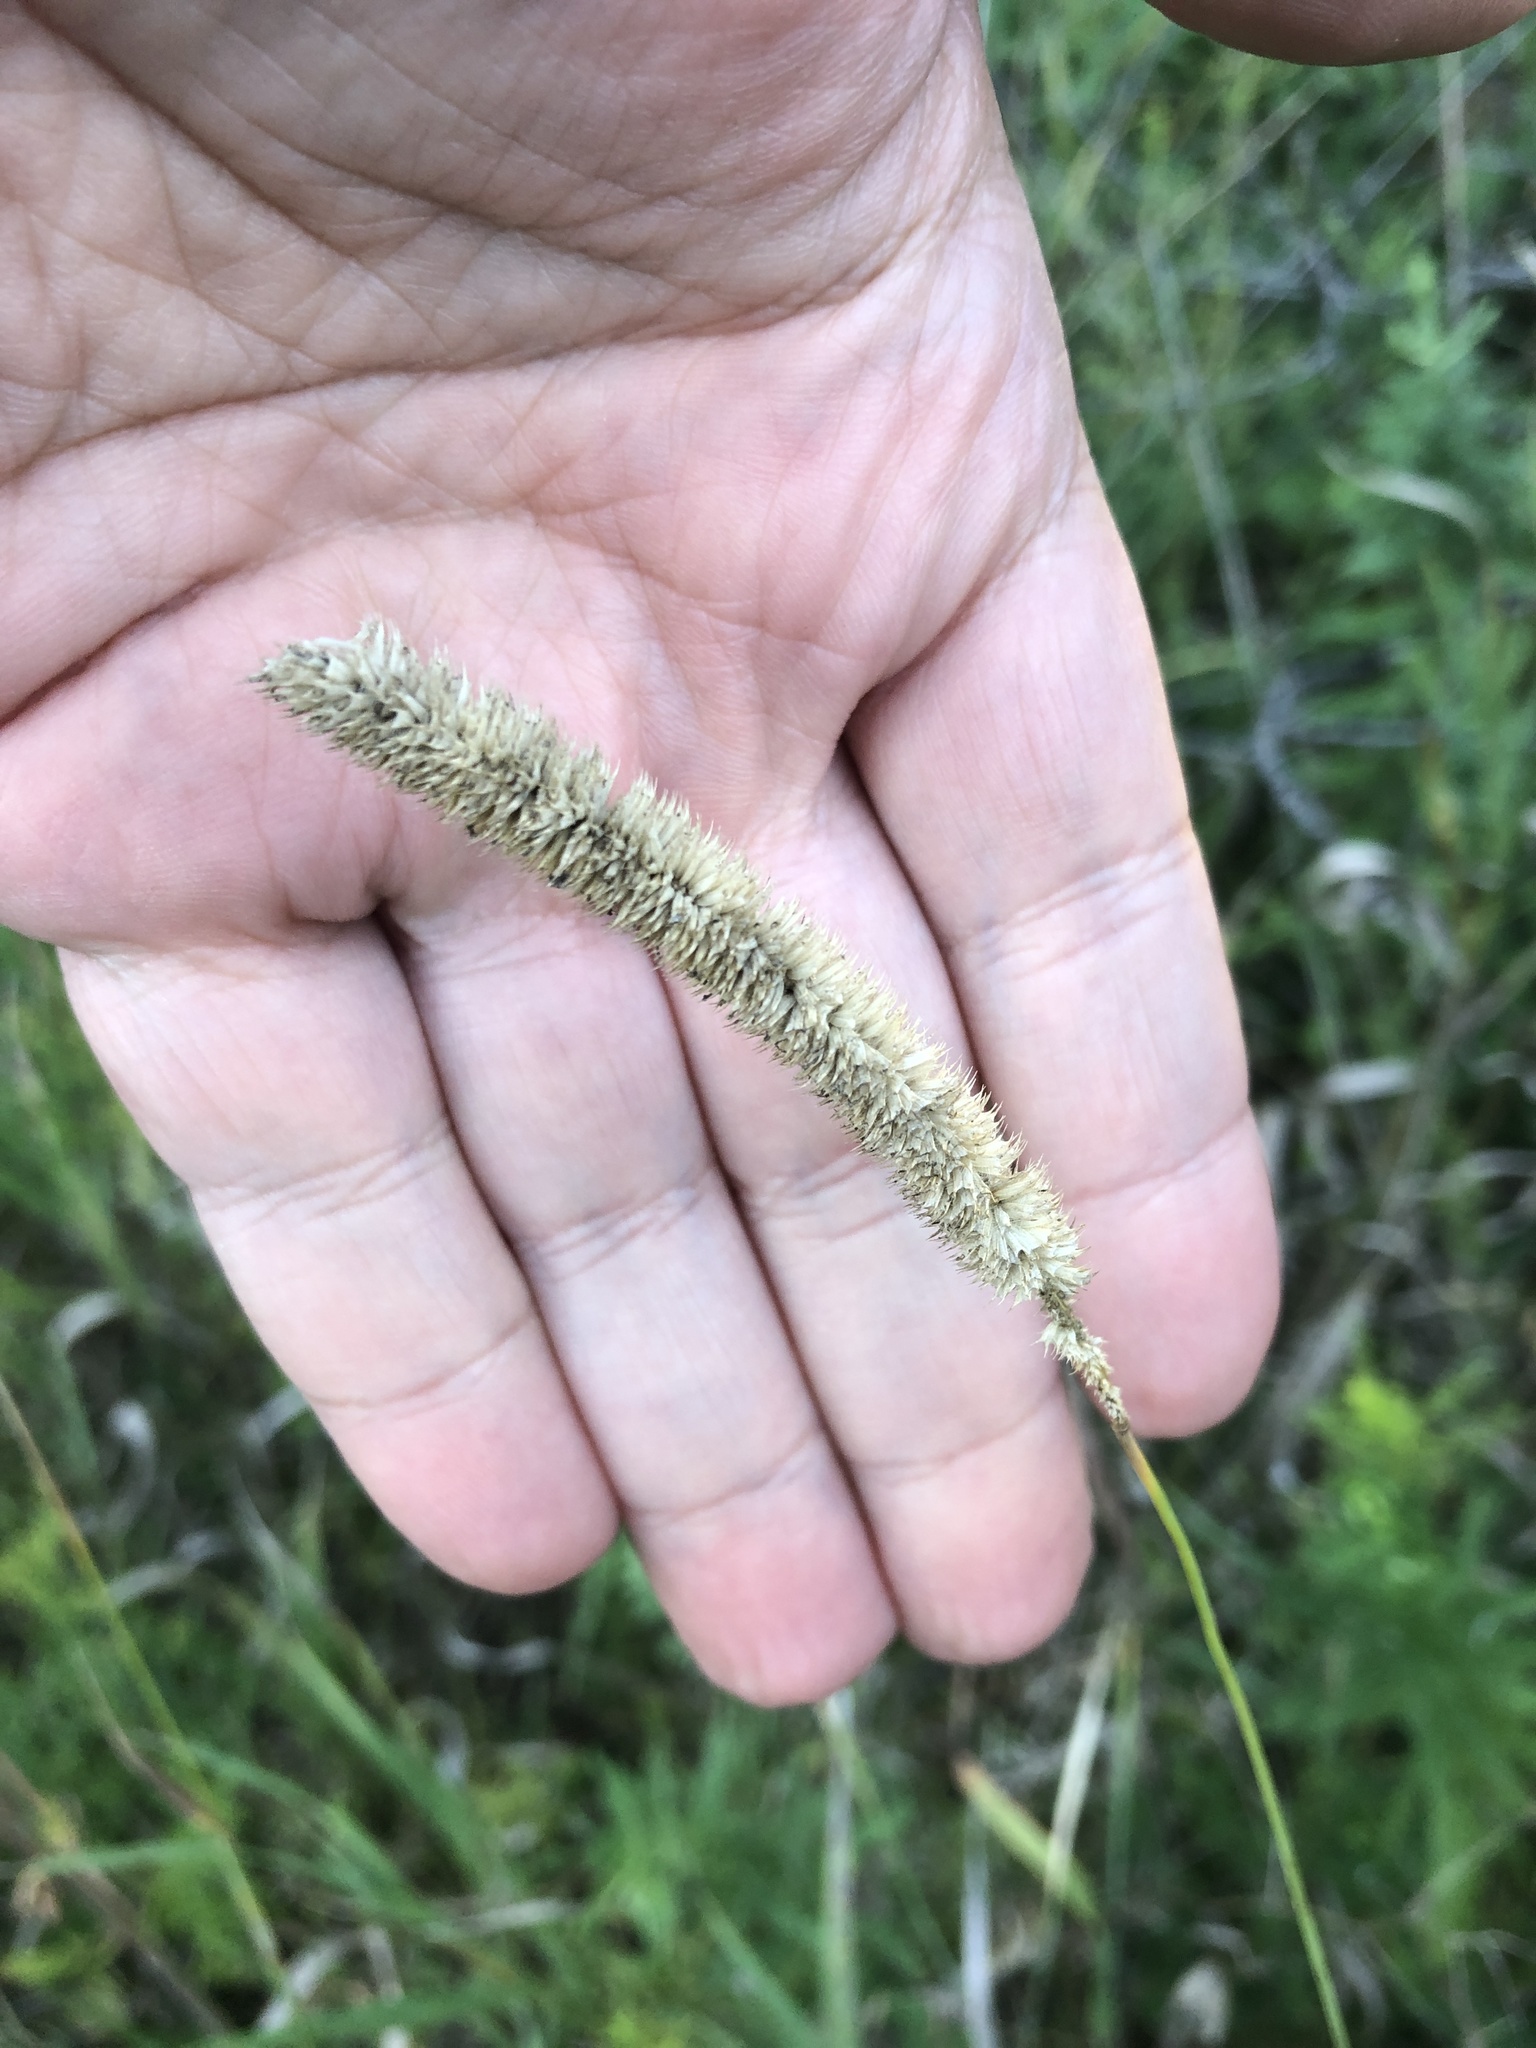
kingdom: Plantae
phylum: Tracheophyta
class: Liliopsida
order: Poales
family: Poaceae
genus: Phleum
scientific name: Phleum pratense
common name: Timothy grass
